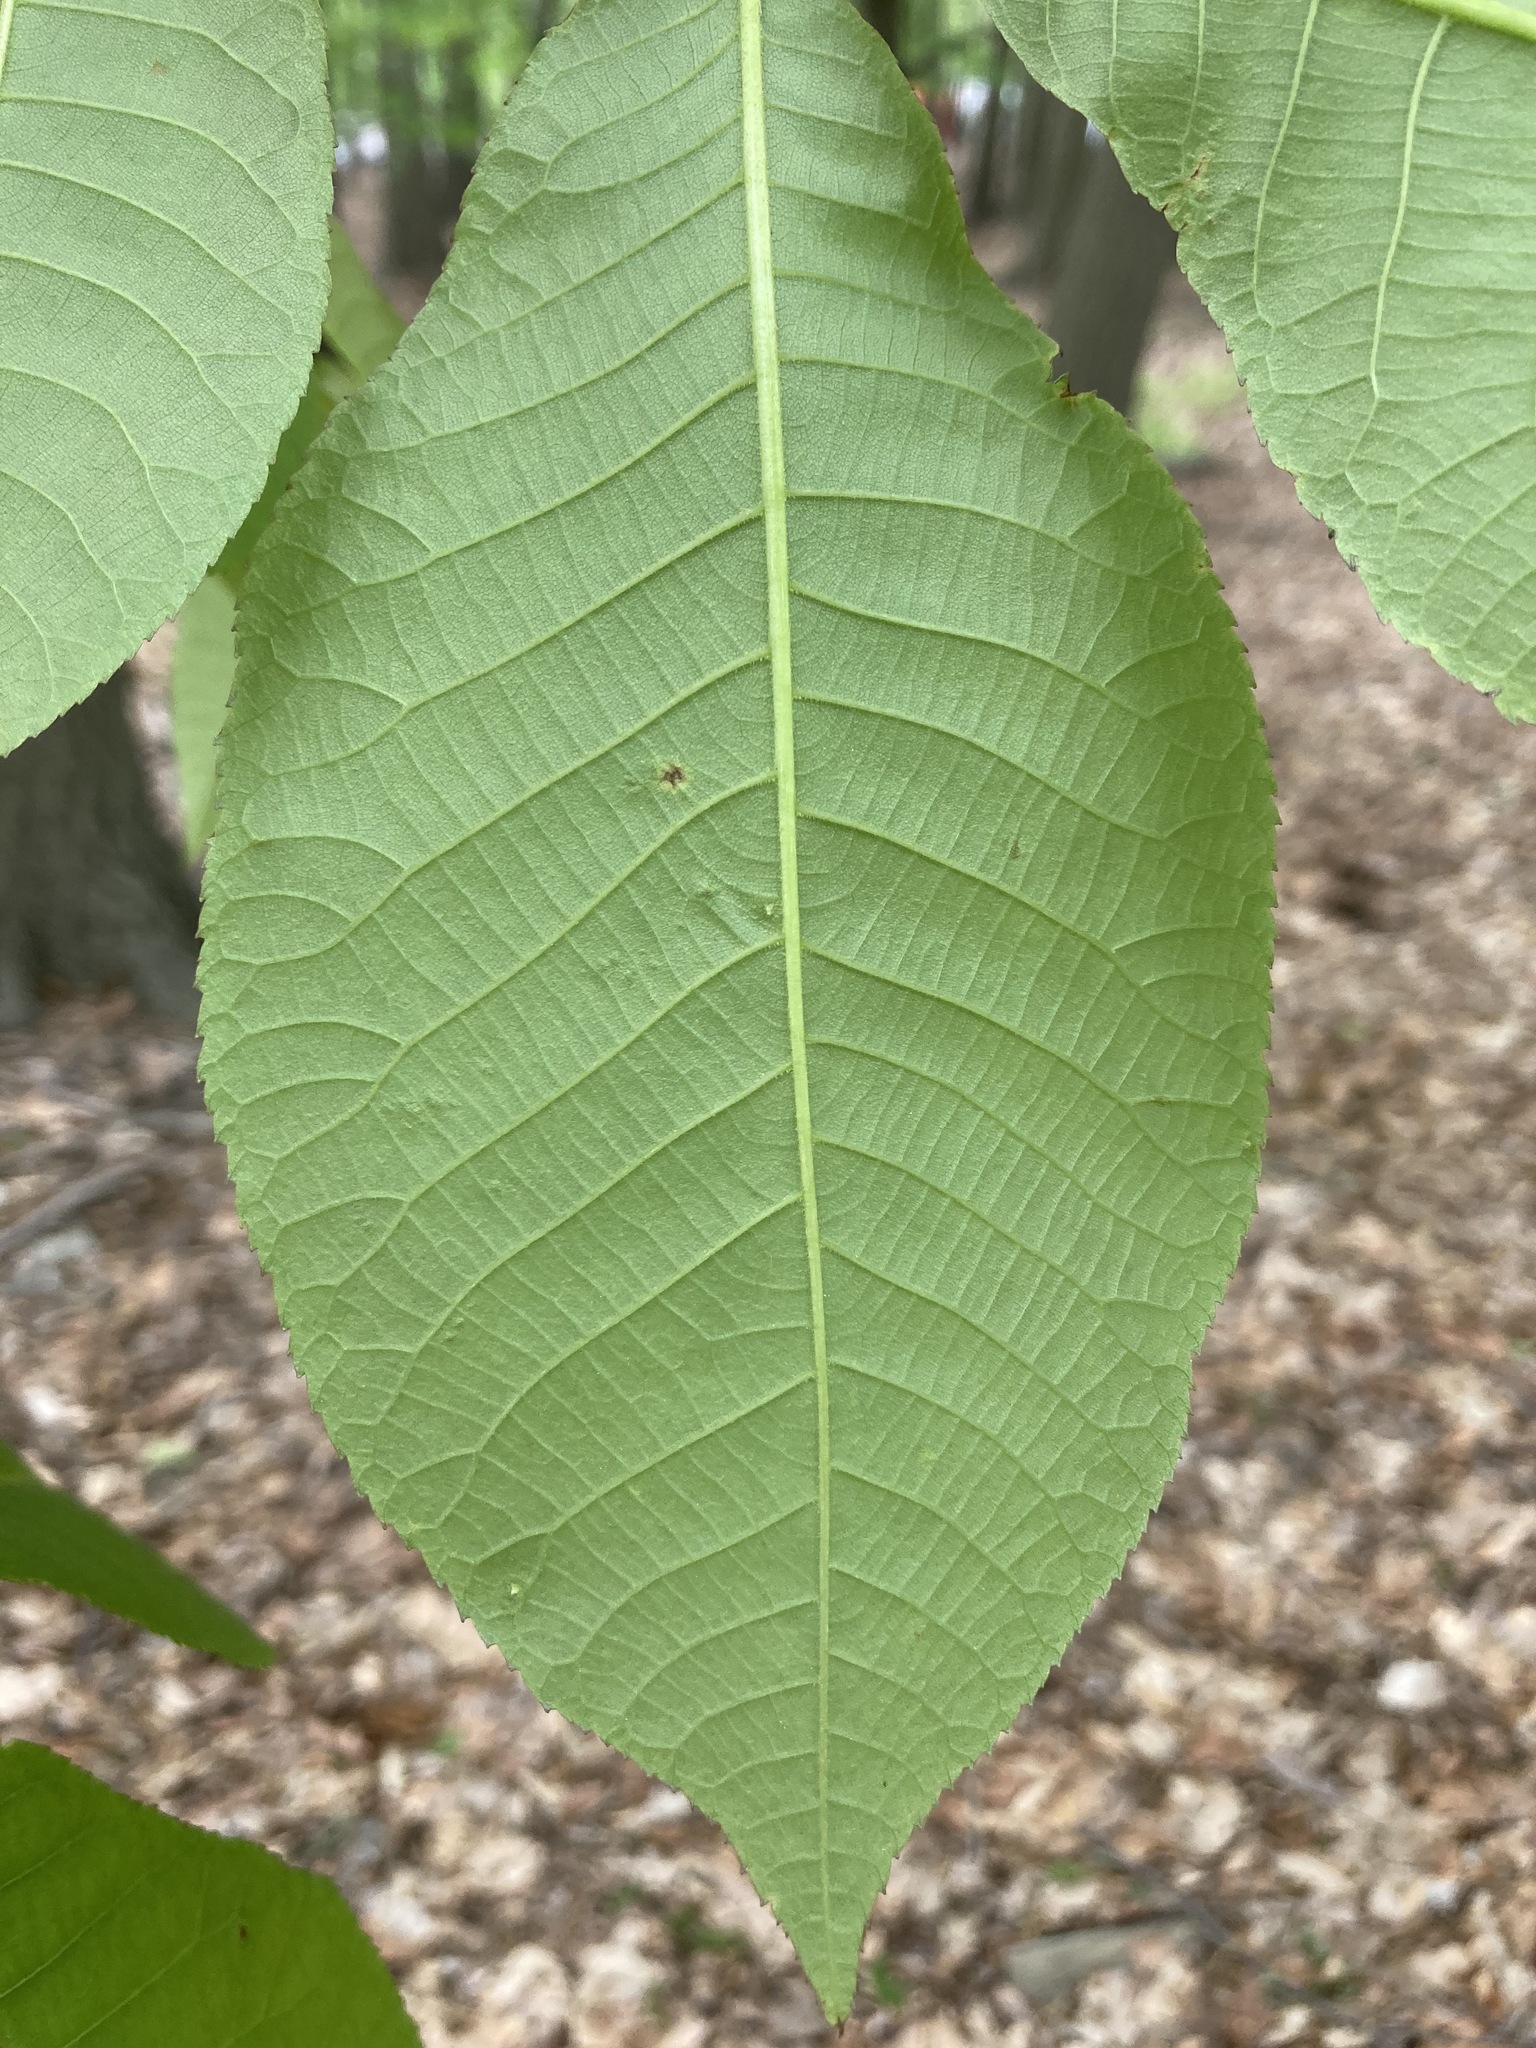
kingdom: Plantae
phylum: Tracheophyta
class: Magnoliopsida
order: Fagales
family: Juglandaceae
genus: Carya
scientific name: Carya glabra
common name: Pignut hickory
